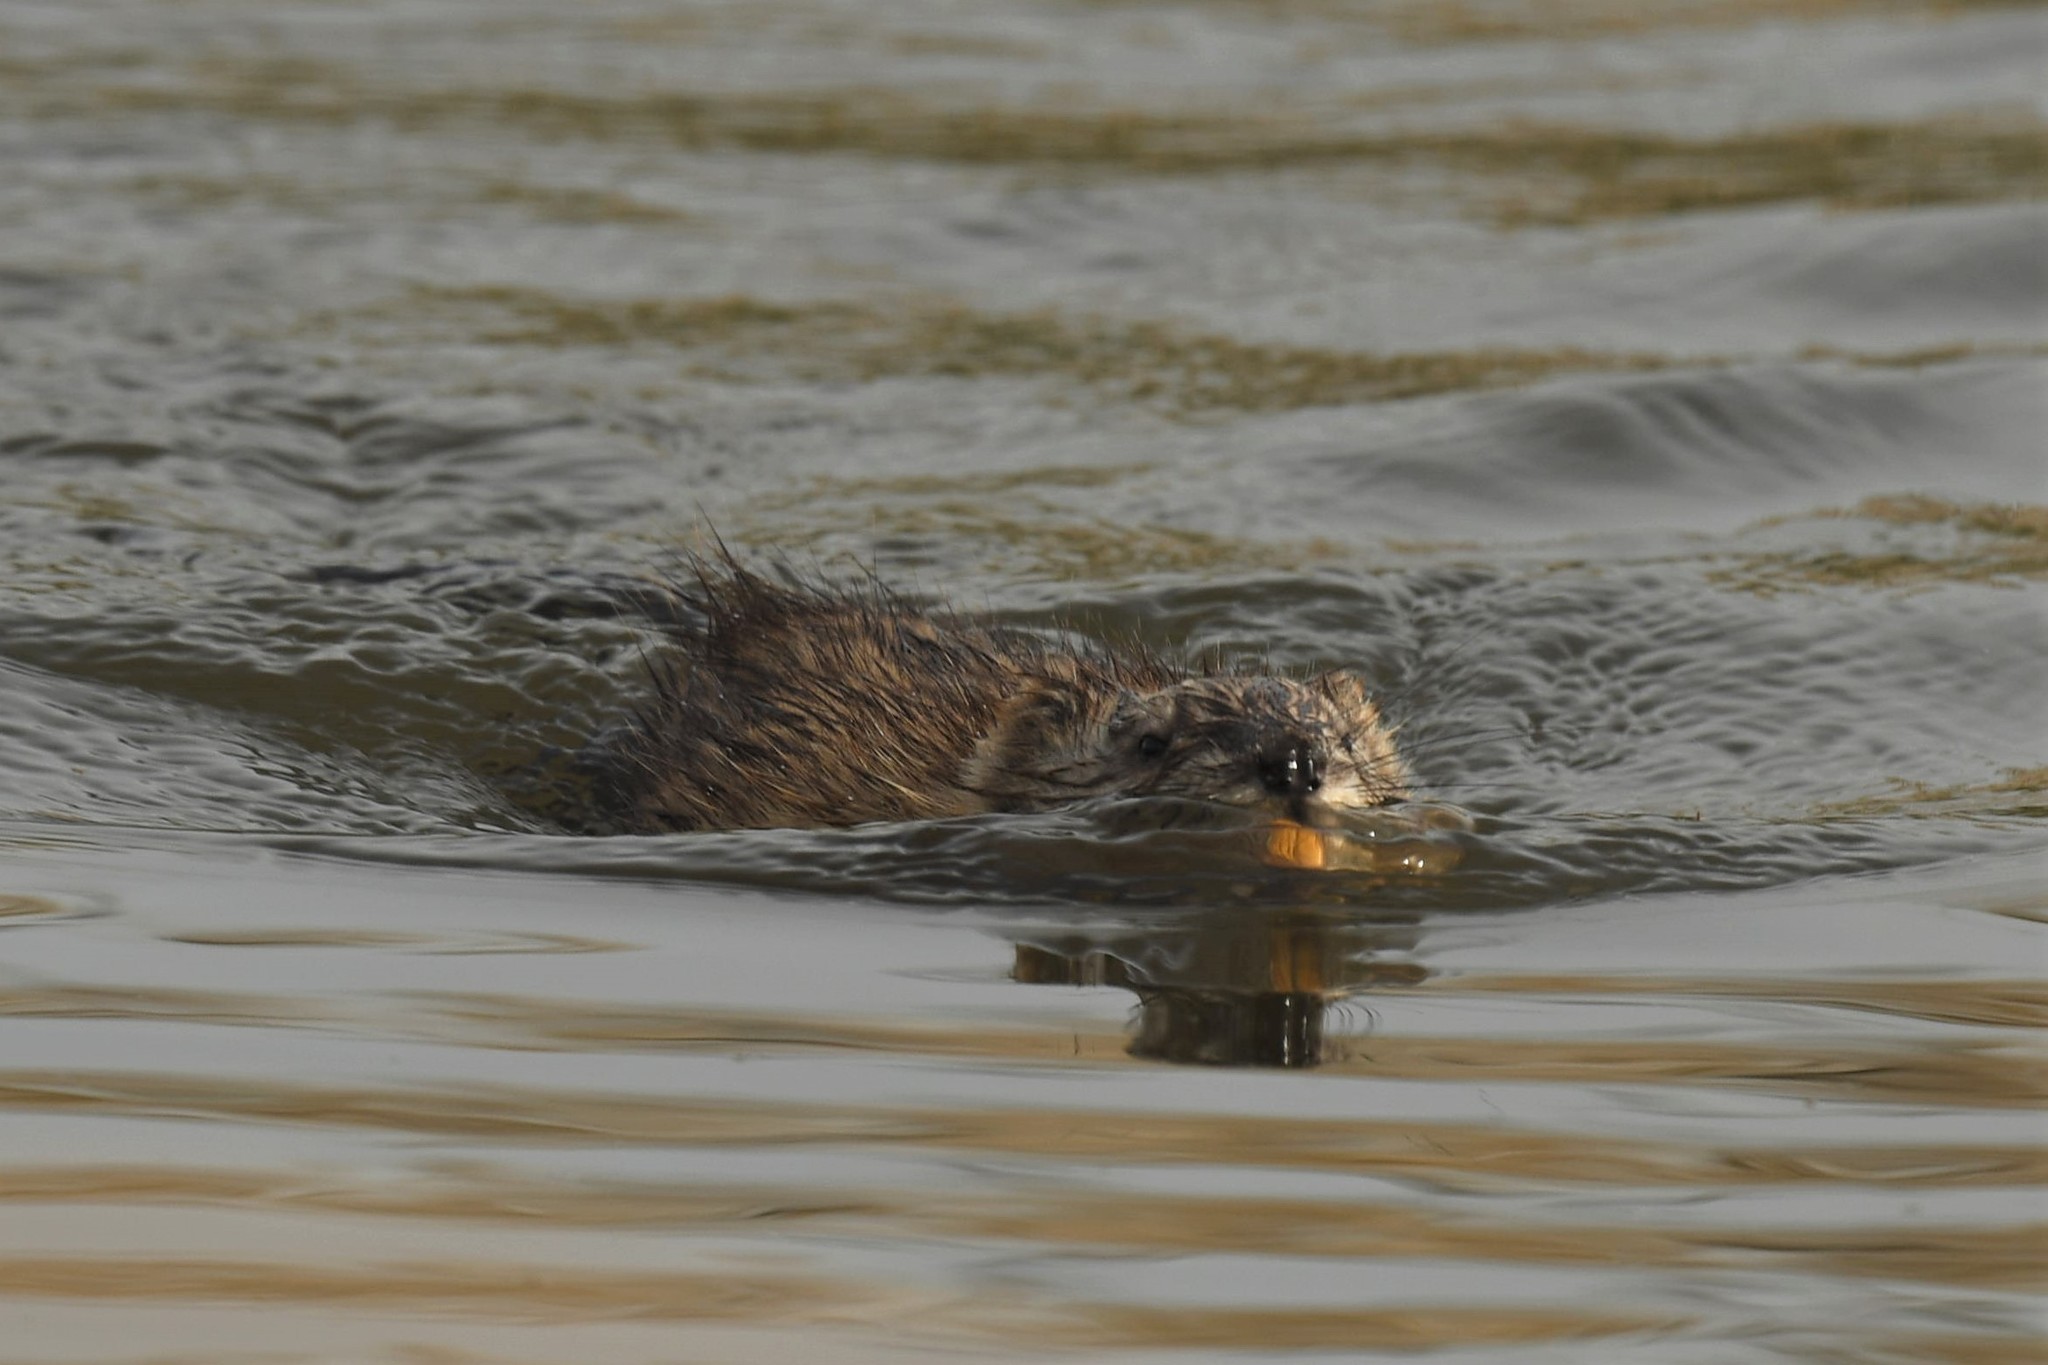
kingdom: Animalia
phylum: Chordata
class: Mammalia
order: Rodentia
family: Cricetidae
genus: Ondatra
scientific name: Ondatra zibethicus
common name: Muskrat
